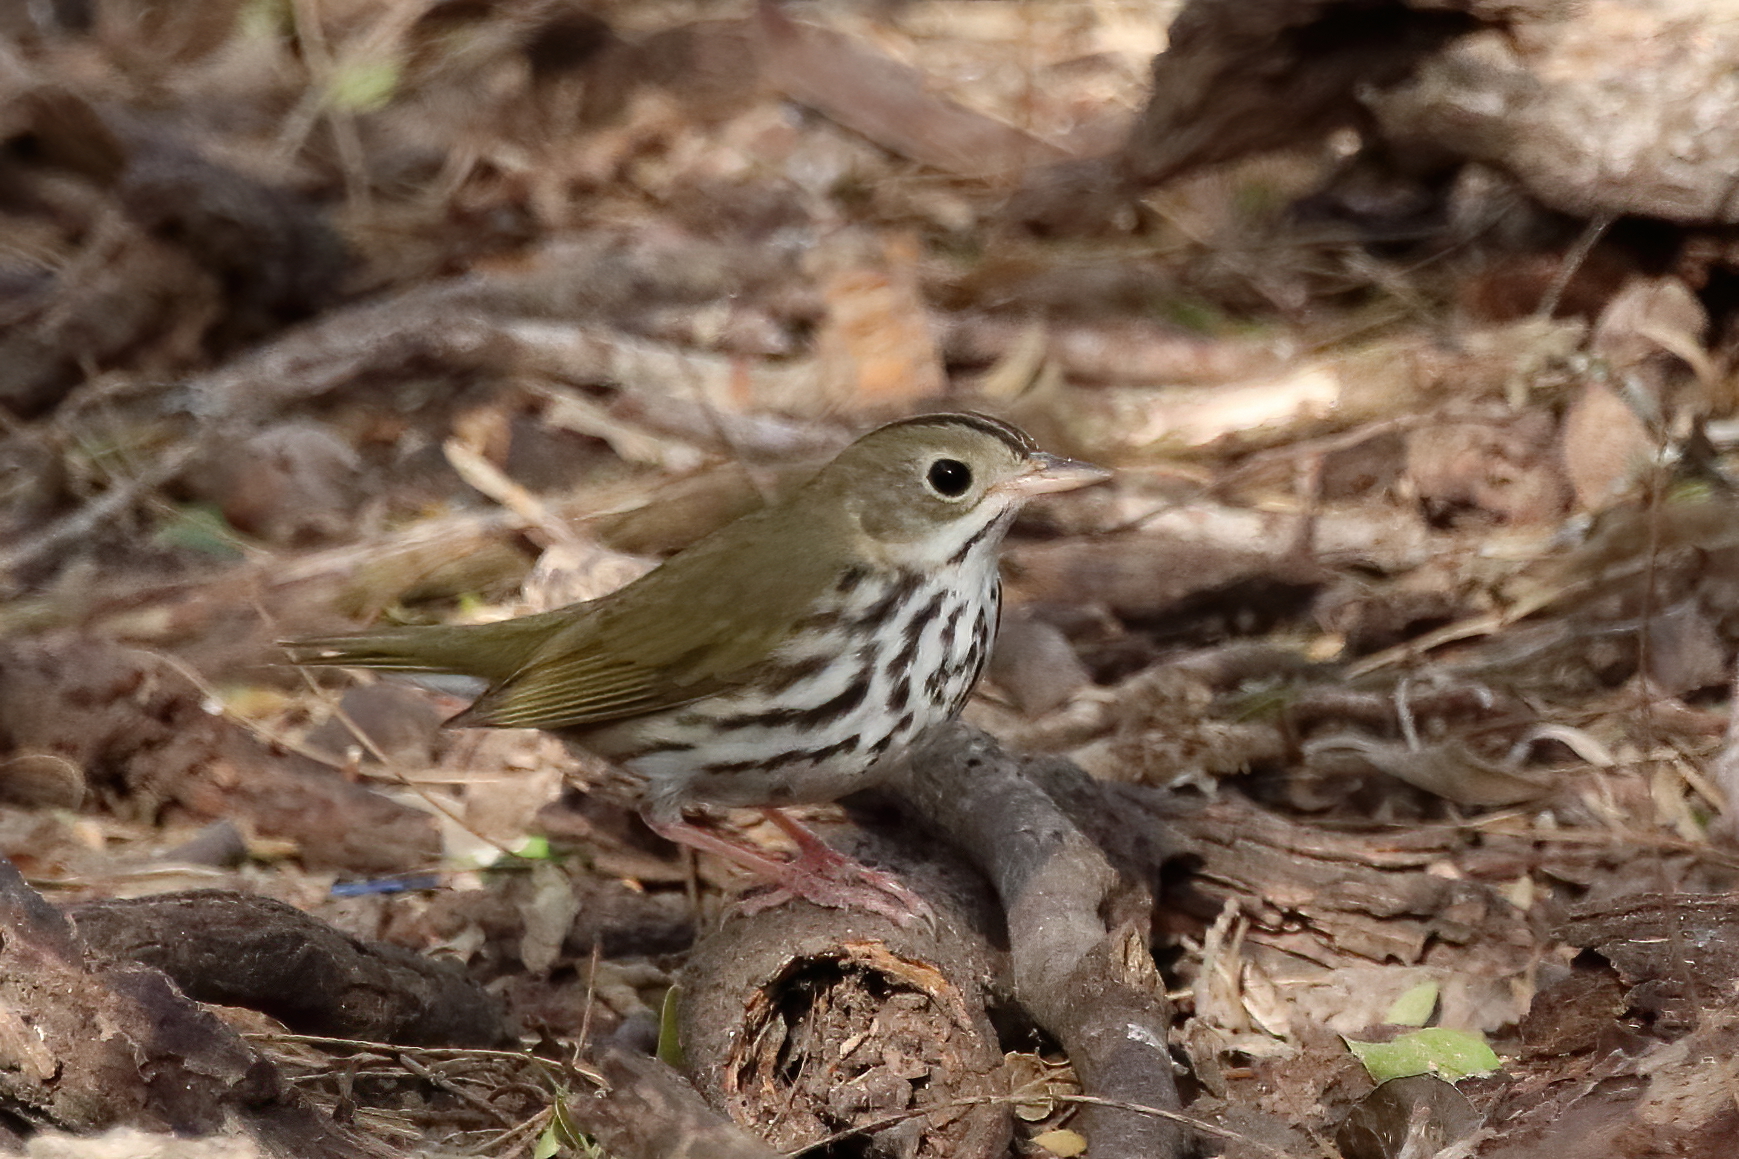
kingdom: Animalia
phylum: Chordata
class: Aves
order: Passeriformes
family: Parulidae
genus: Seiurus
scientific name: Seiurus aurocapilla
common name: Ovenbird
